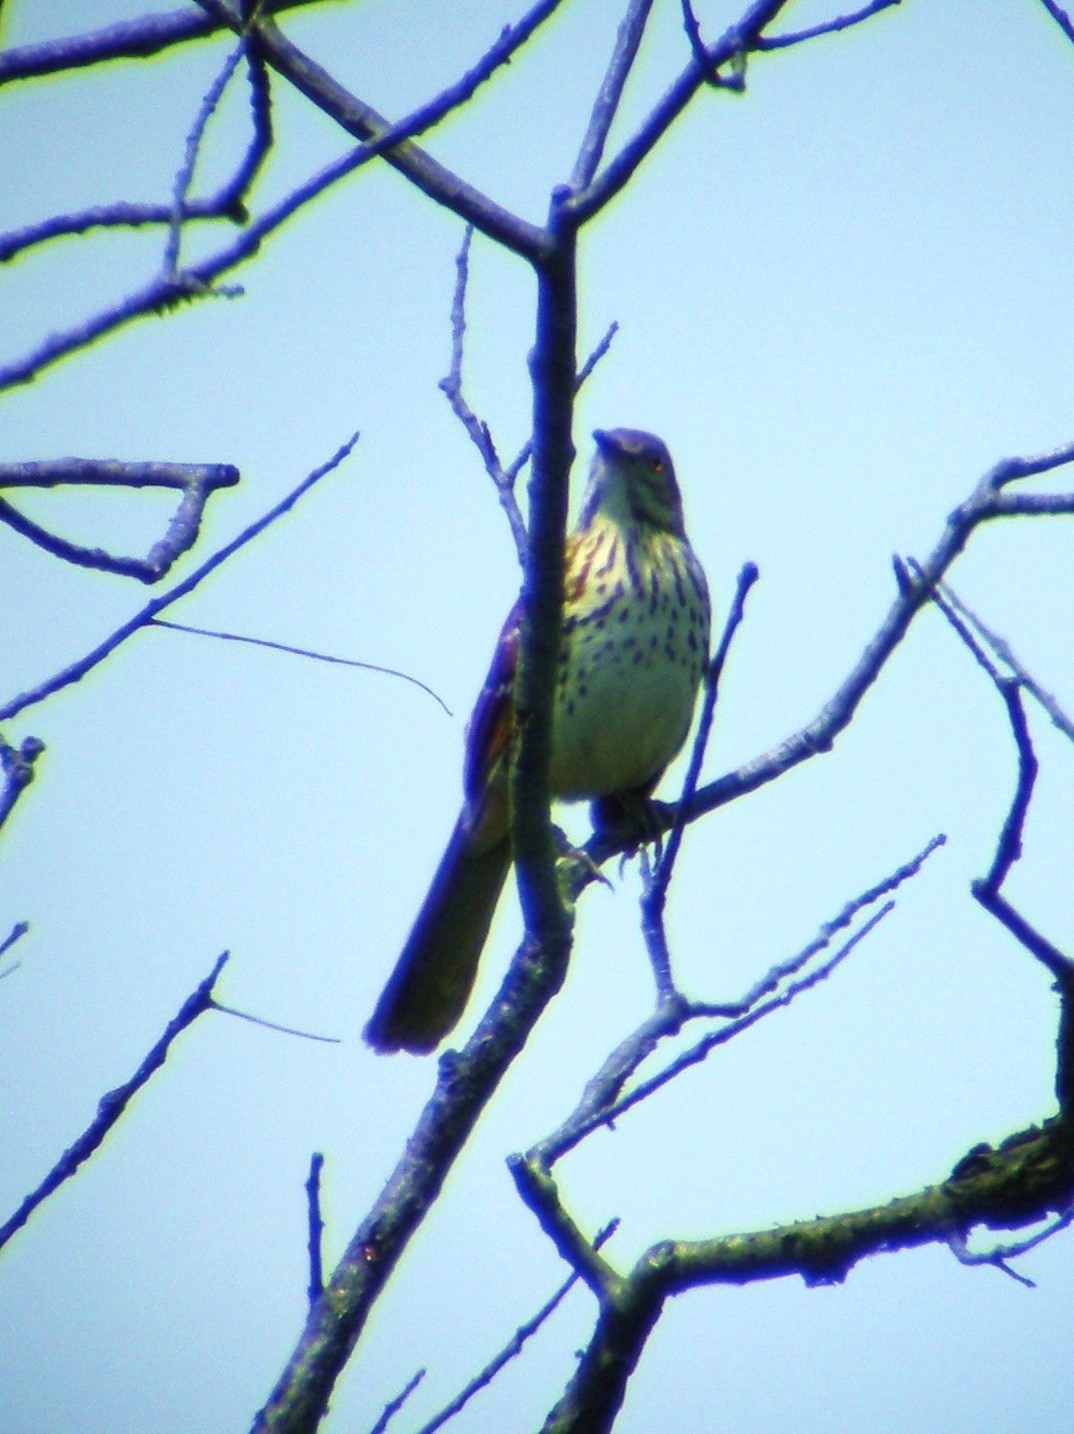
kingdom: Animalia
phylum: Chordata
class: Aves
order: Passeriformes
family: Mimidae
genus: Toxostoma
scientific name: Toxostoma rufum
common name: Brown thrasher
